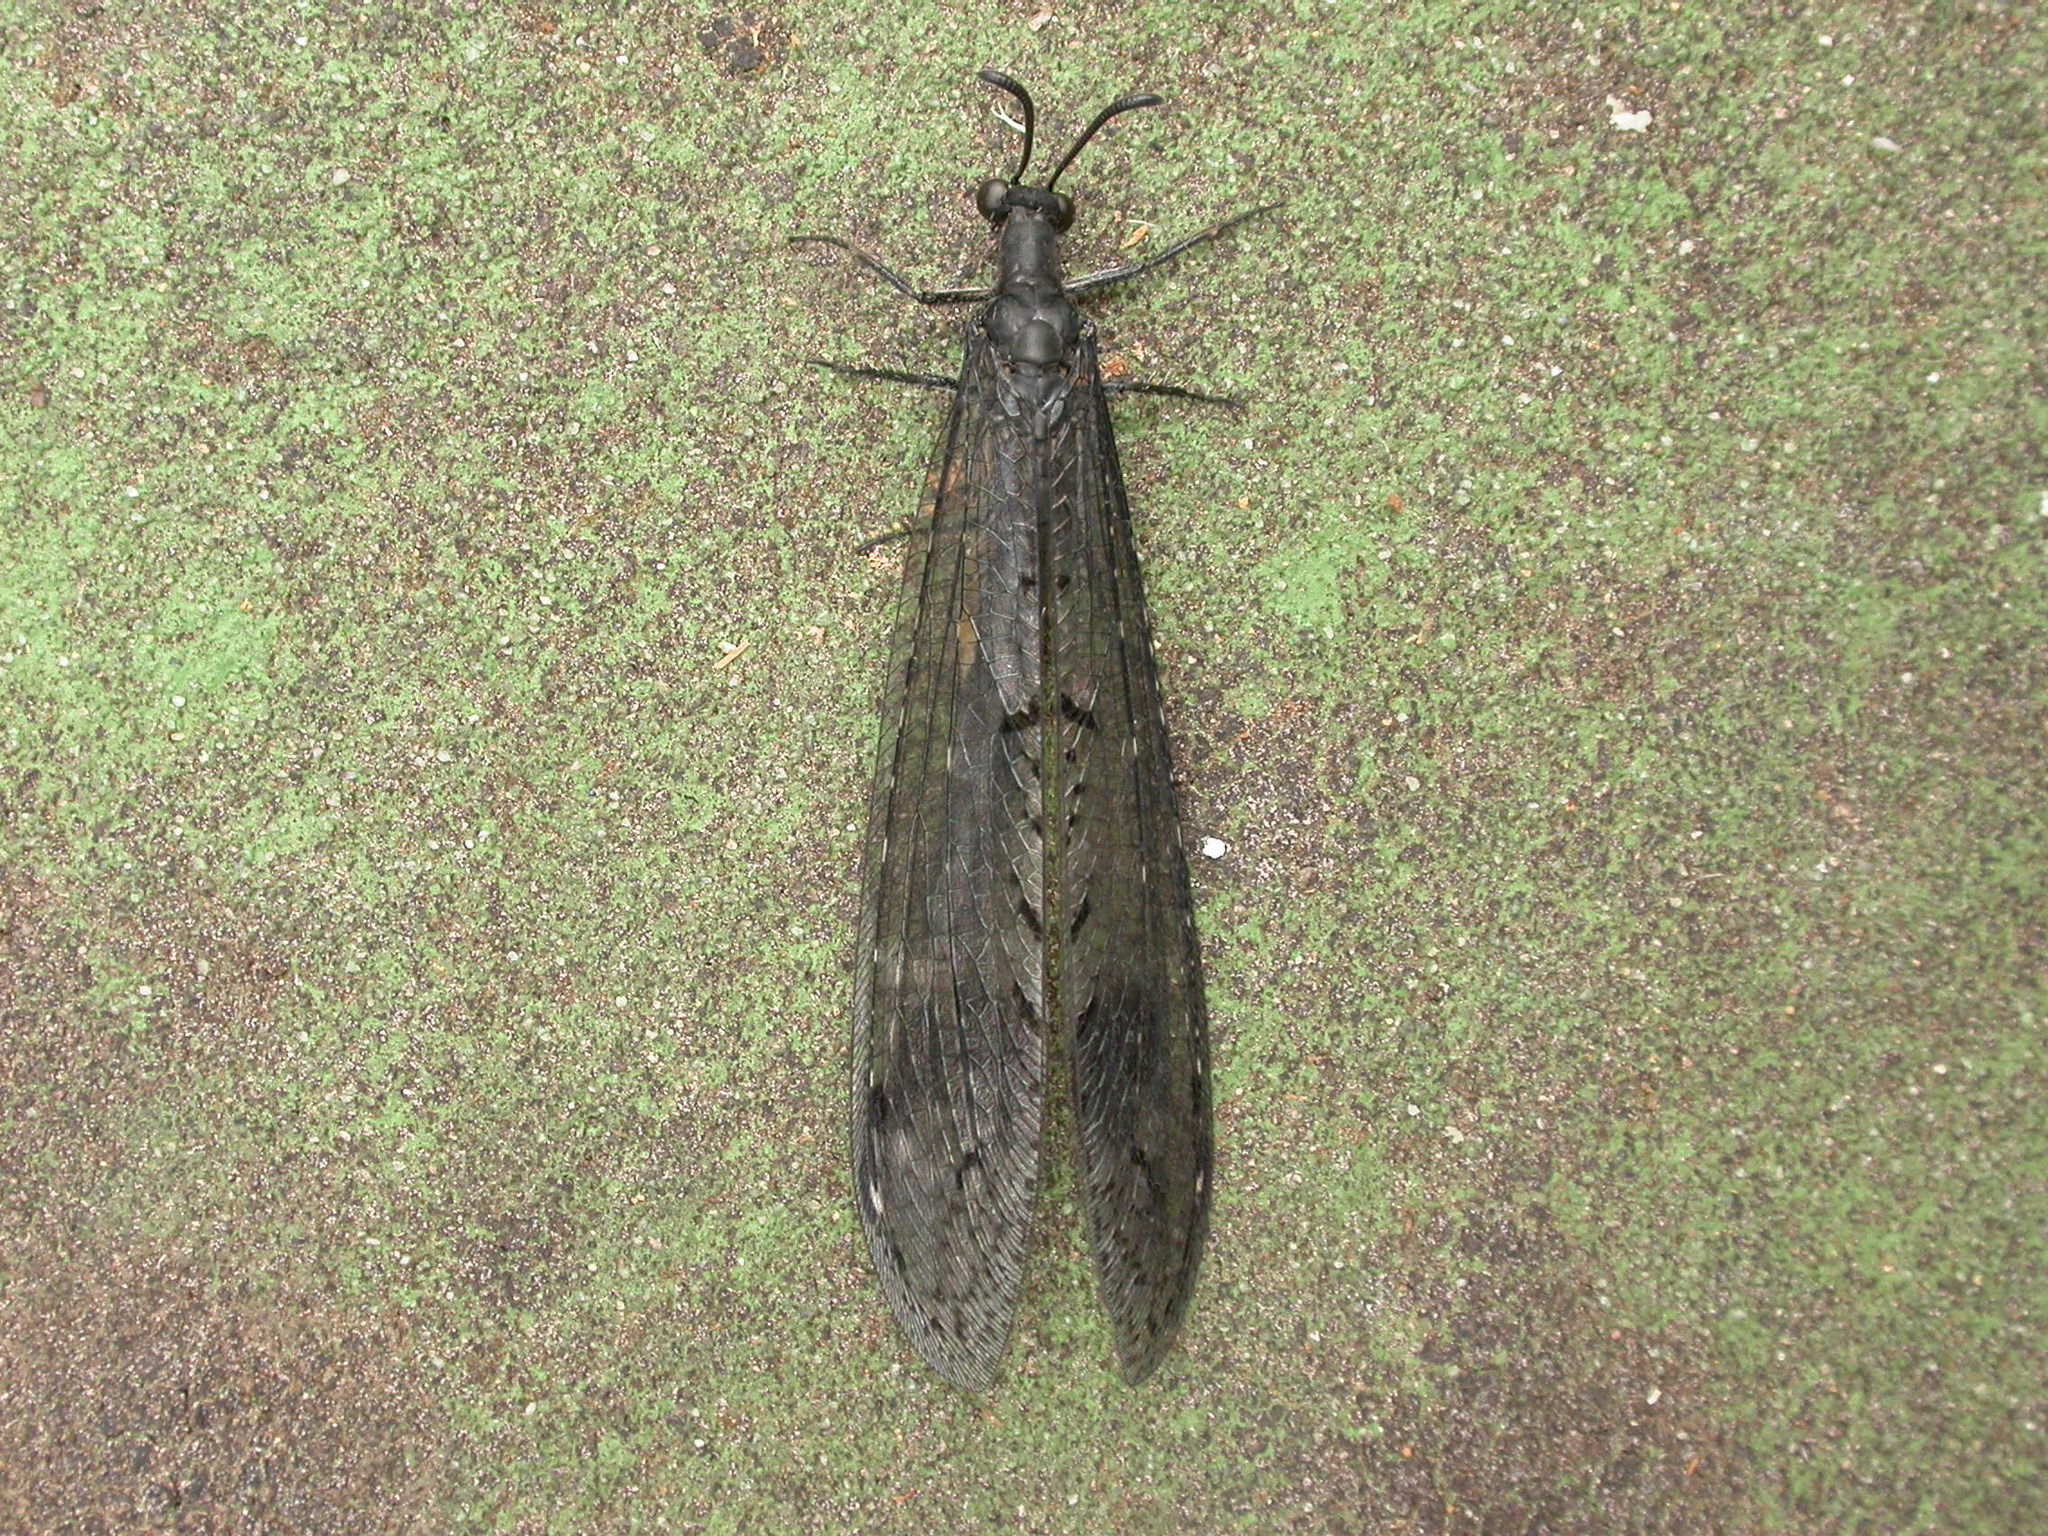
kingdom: Animalia
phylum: Arthropoda
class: Insecta
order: Neuroptera
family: Myrmeleontidae
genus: Glenoleon
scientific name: Glenoleon falsus
